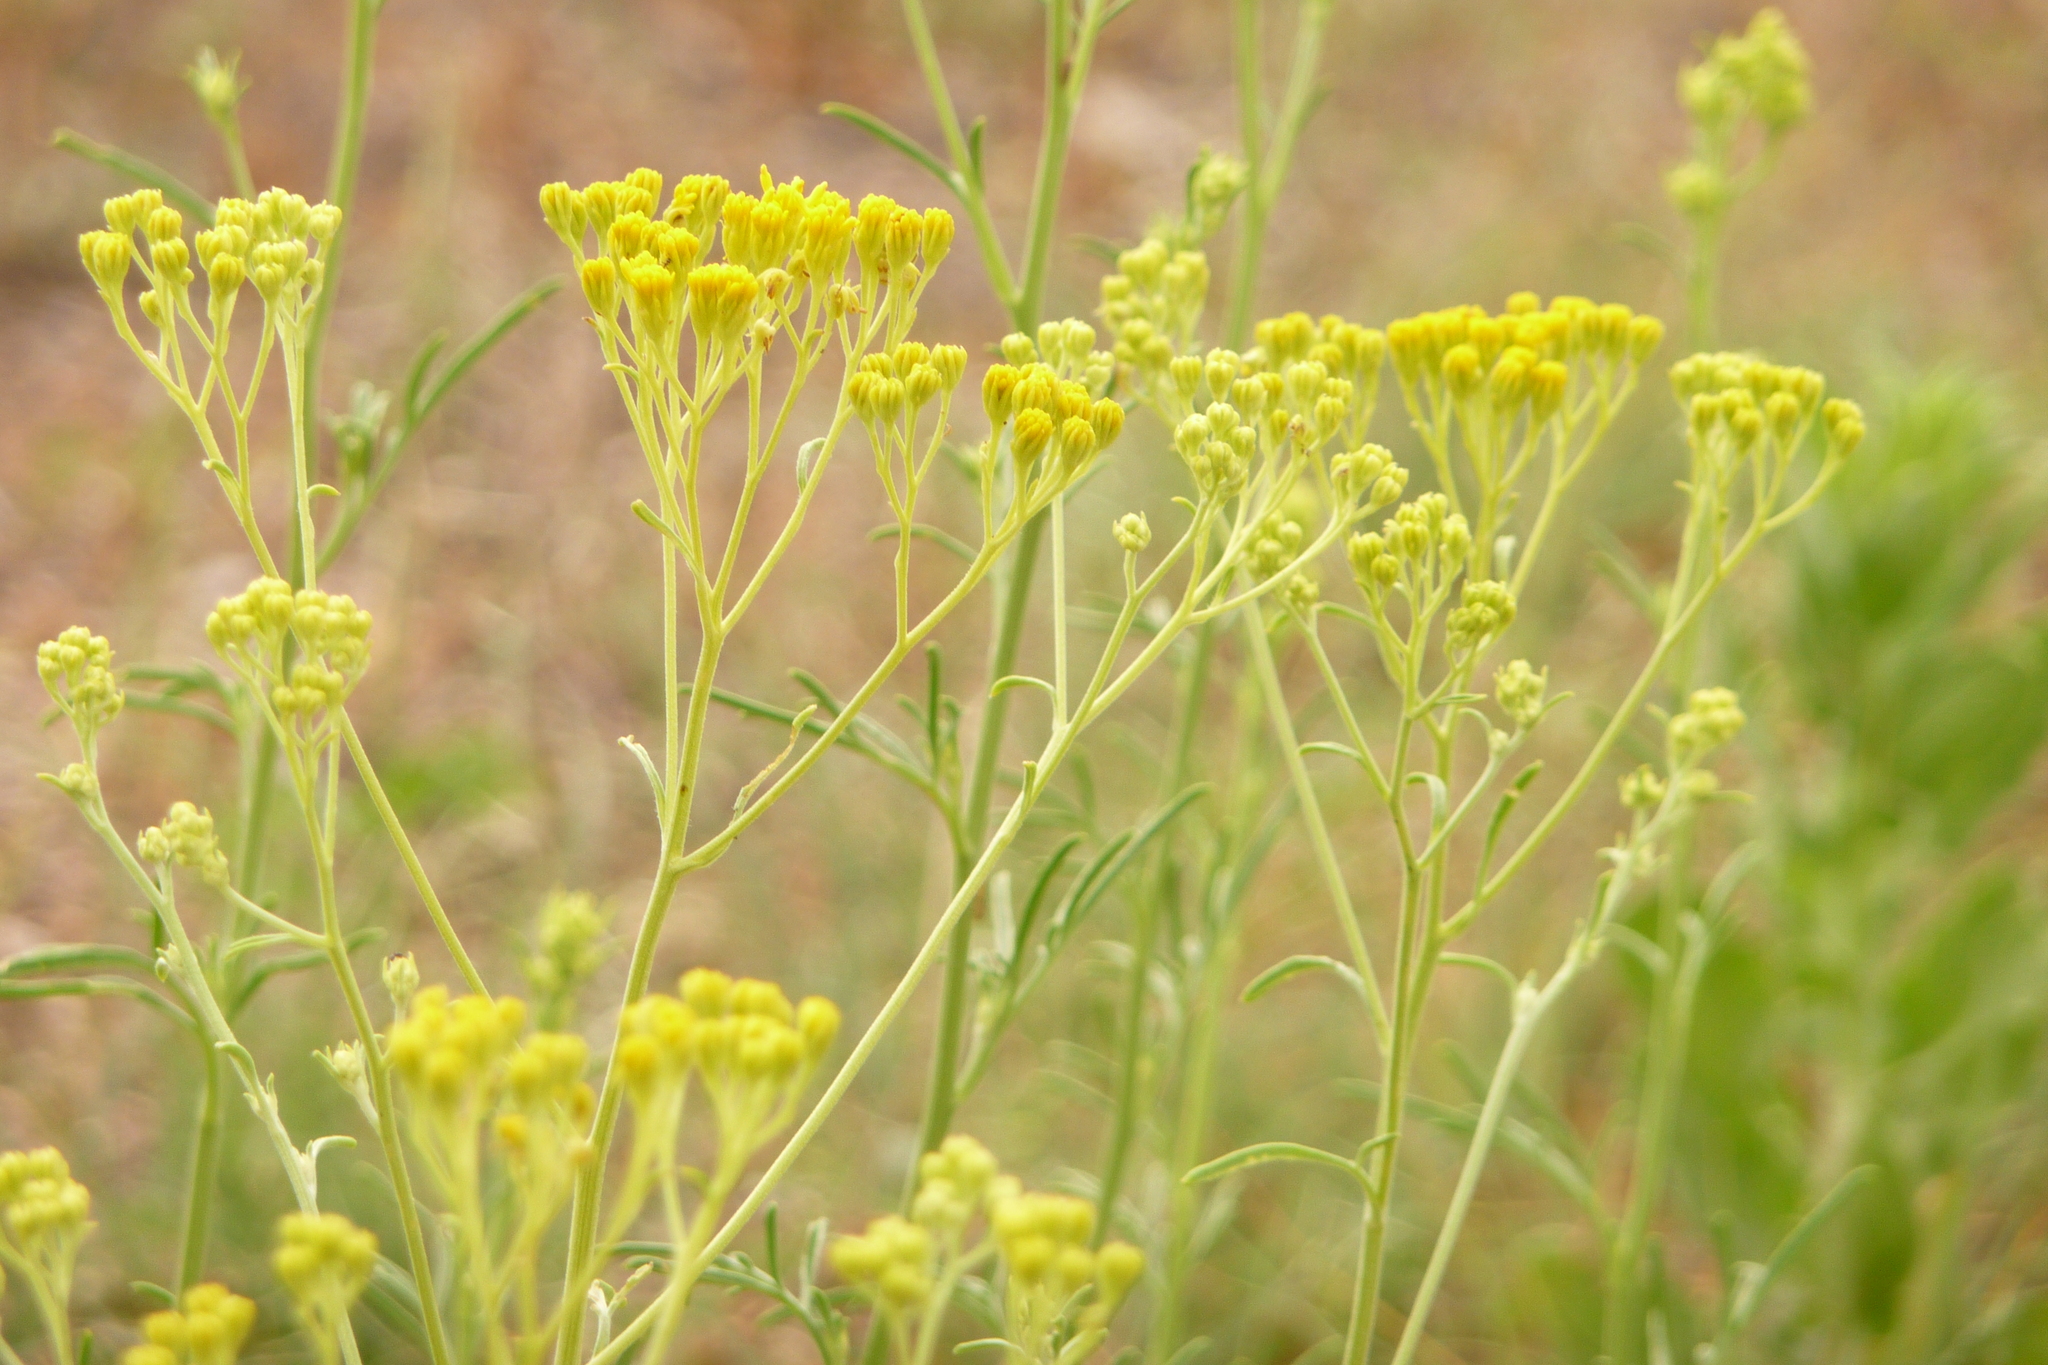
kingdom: Plantae
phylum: Tracheophyta
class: Magnoliopsida
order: Asterales
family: Asteraceae
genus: Hymenothrix
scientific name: Hymenothrix wislizeni
